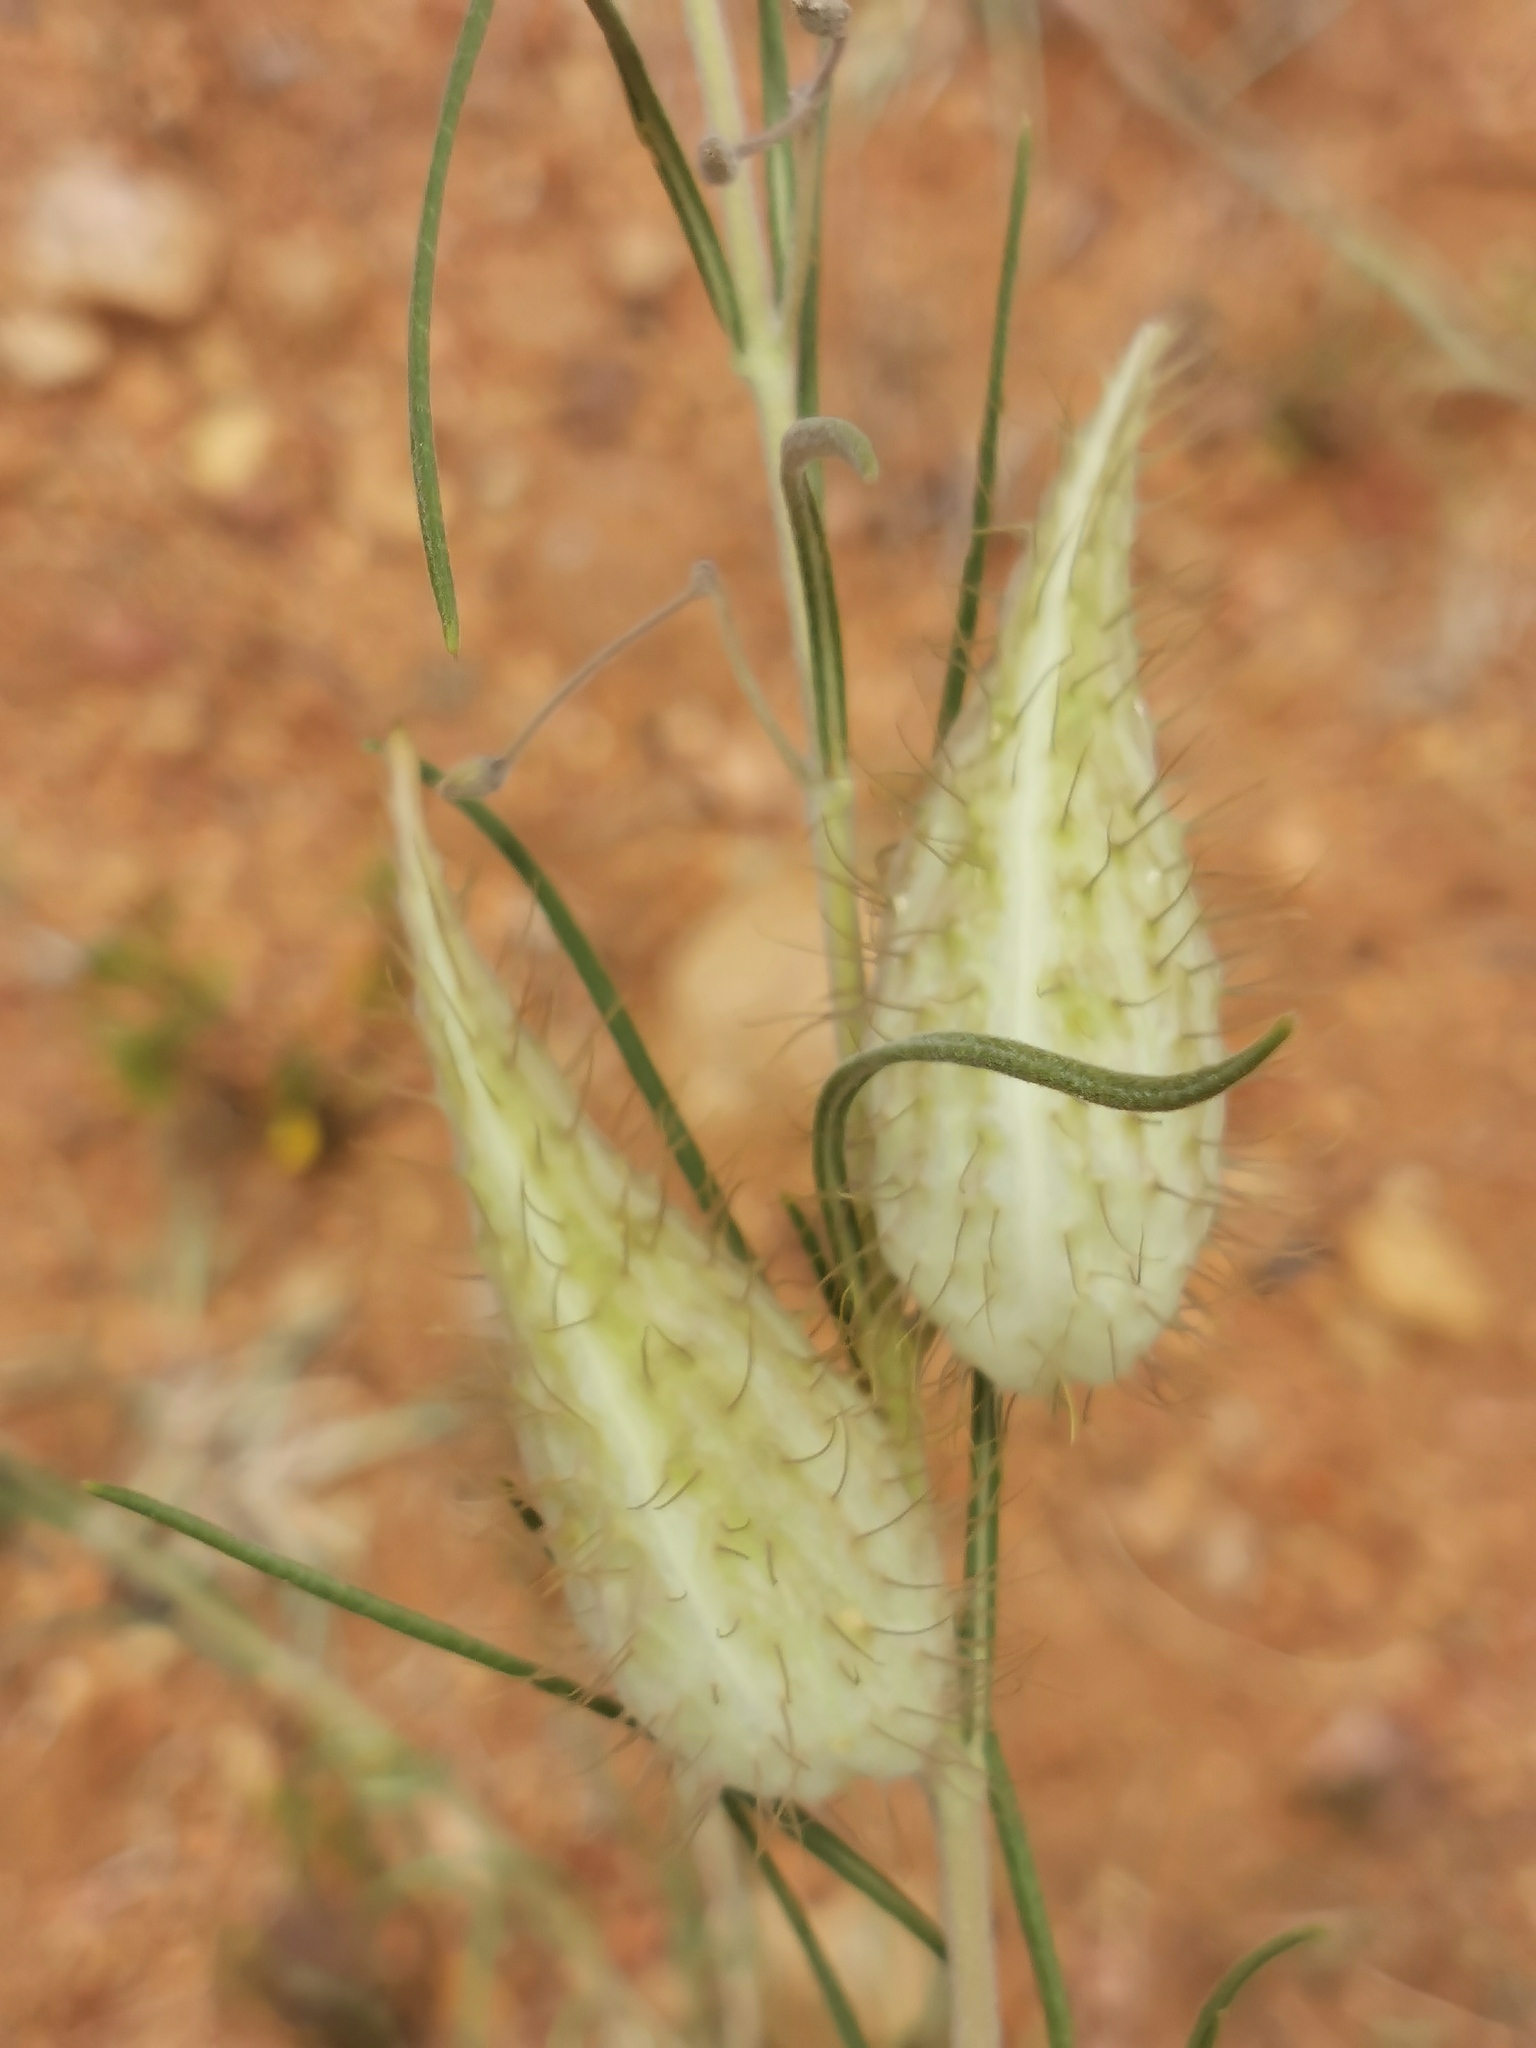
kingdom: Plantae
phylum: Tracheophyta
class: Magnoliopsida
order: Gentianales
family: Apocynaceae
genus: Gomphocarpus
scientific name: Gomphocarpus tomentosus
